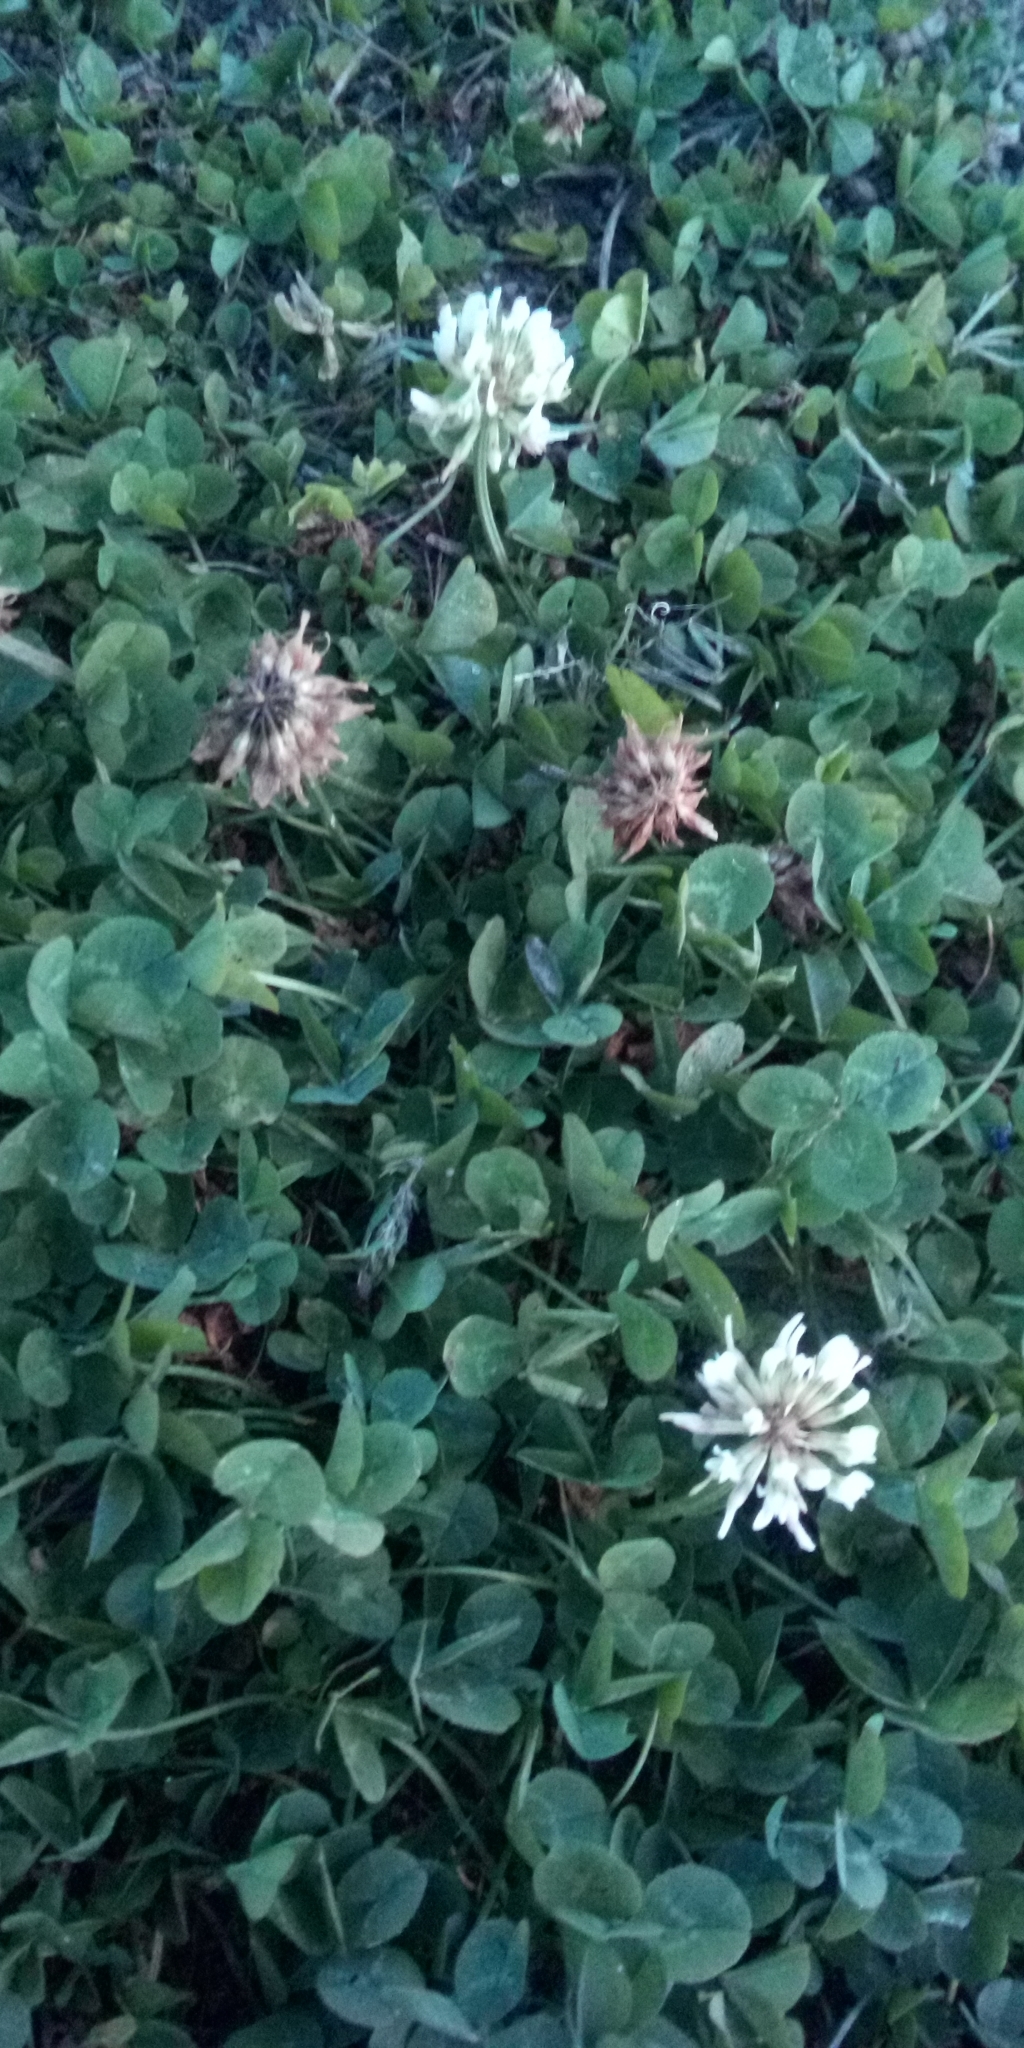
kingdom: Plantae
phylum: Tracheophyta
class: Magnoliopsida
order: Fabales
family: Fabaceae
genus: Trifolium
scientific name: Trifolium repens
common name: White clover
